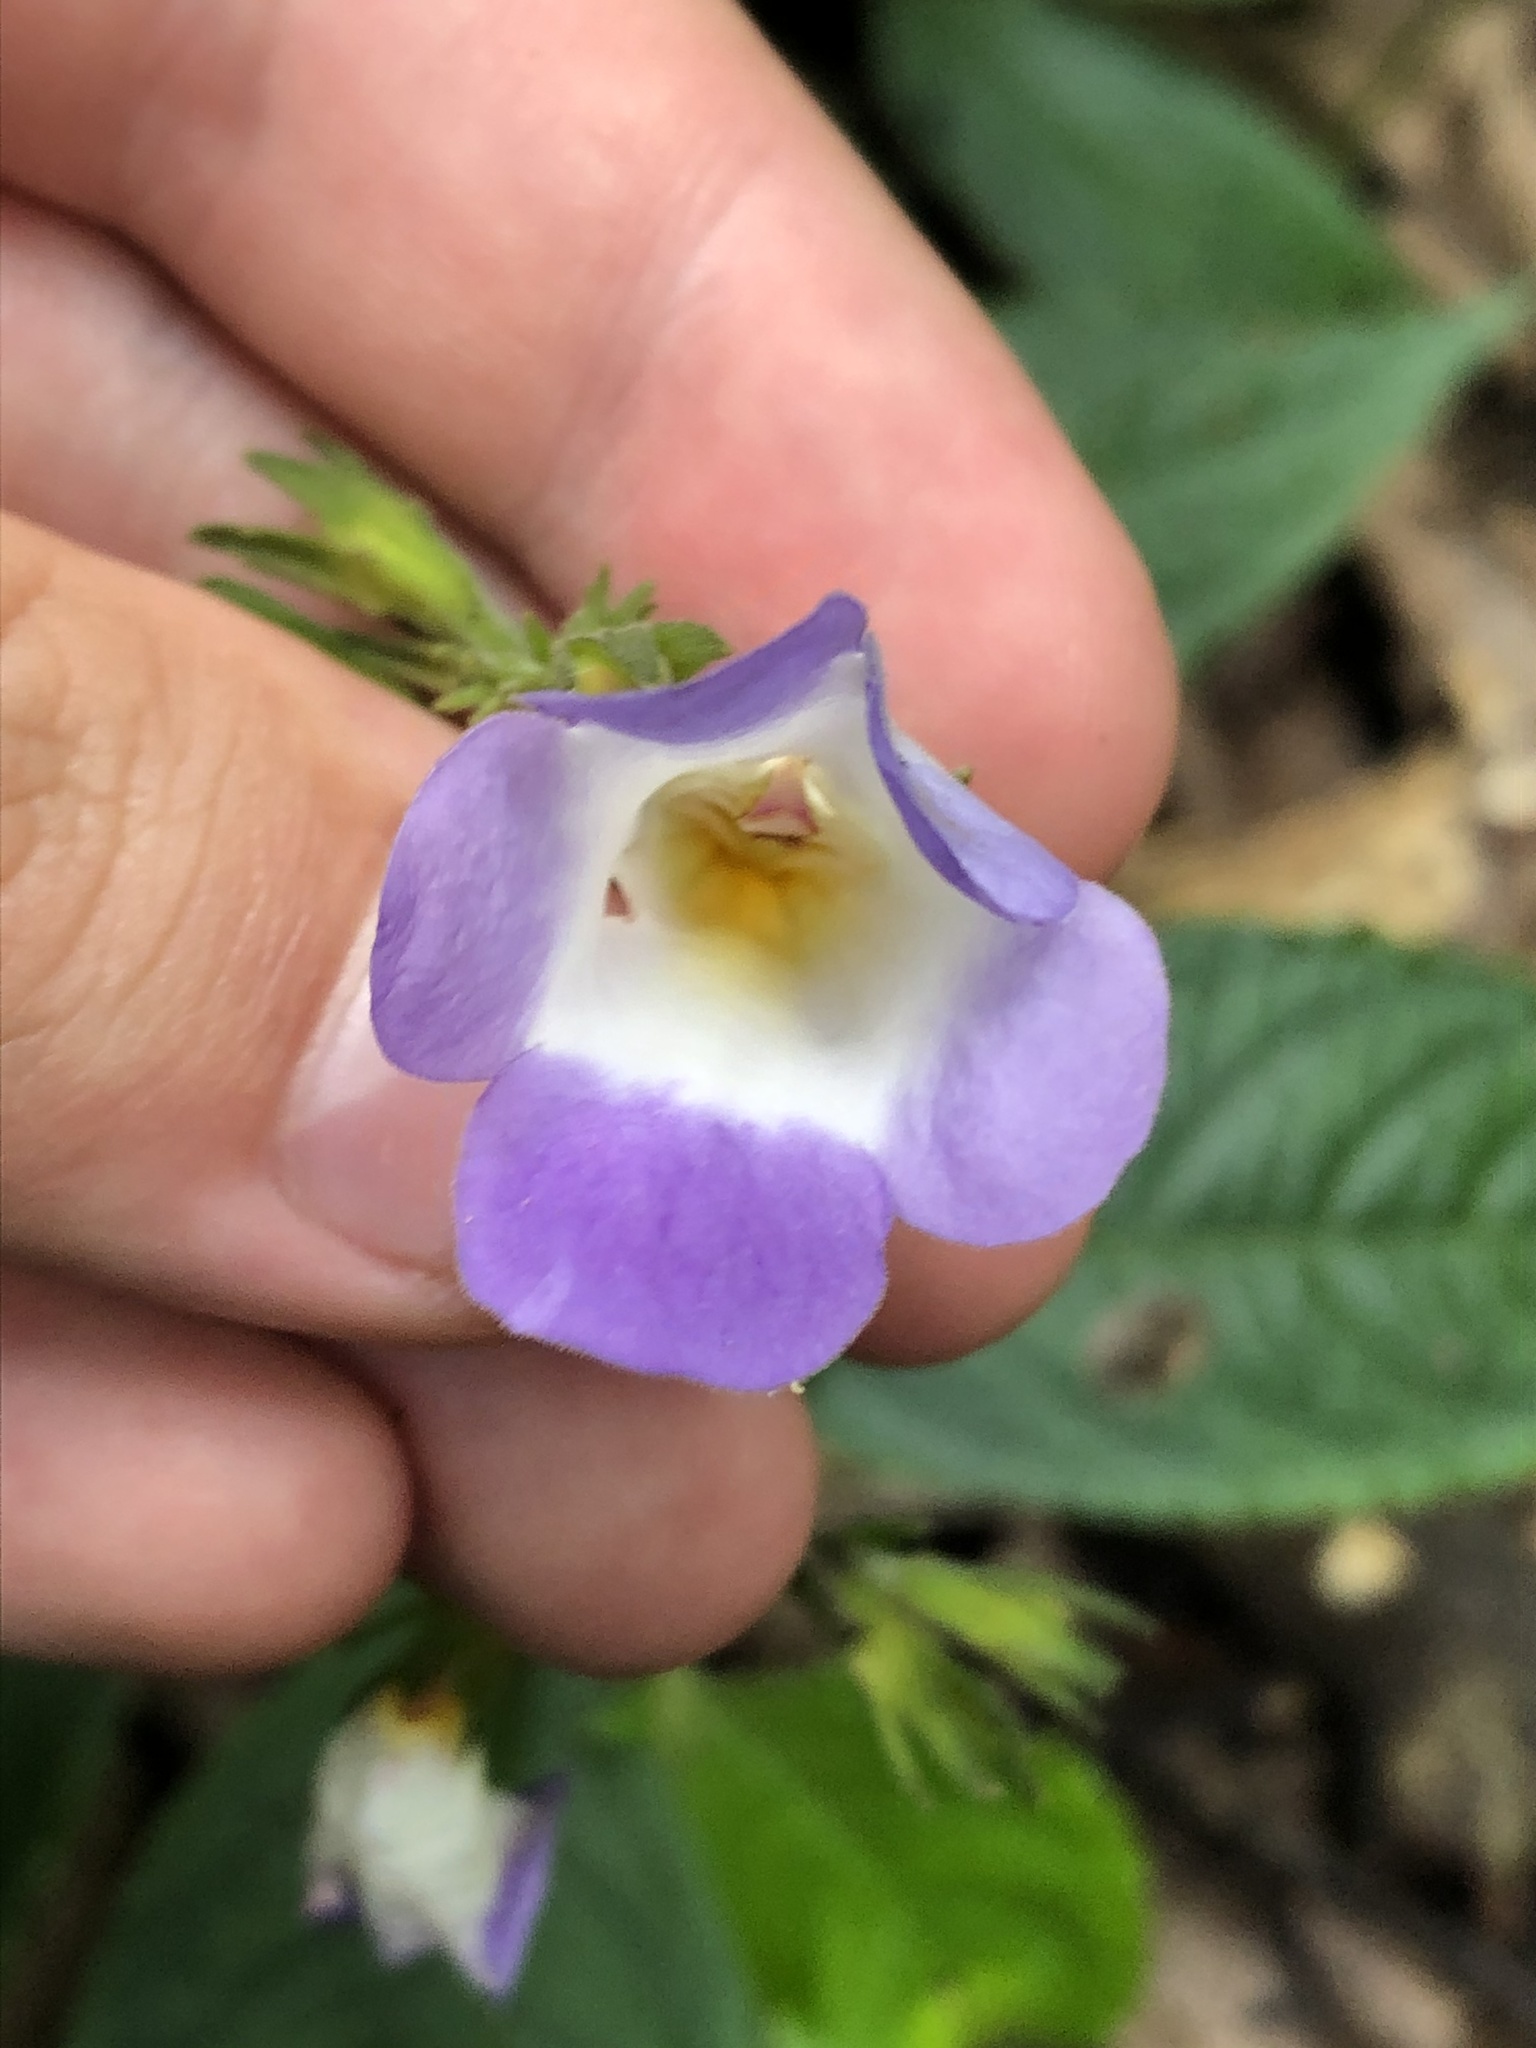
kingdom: Plantae
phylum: Tracheophyta
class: Magnoliopsida
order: Lamiales
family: Gesneriaceae
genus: Monopyle
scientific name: Monopyle subsessilis
